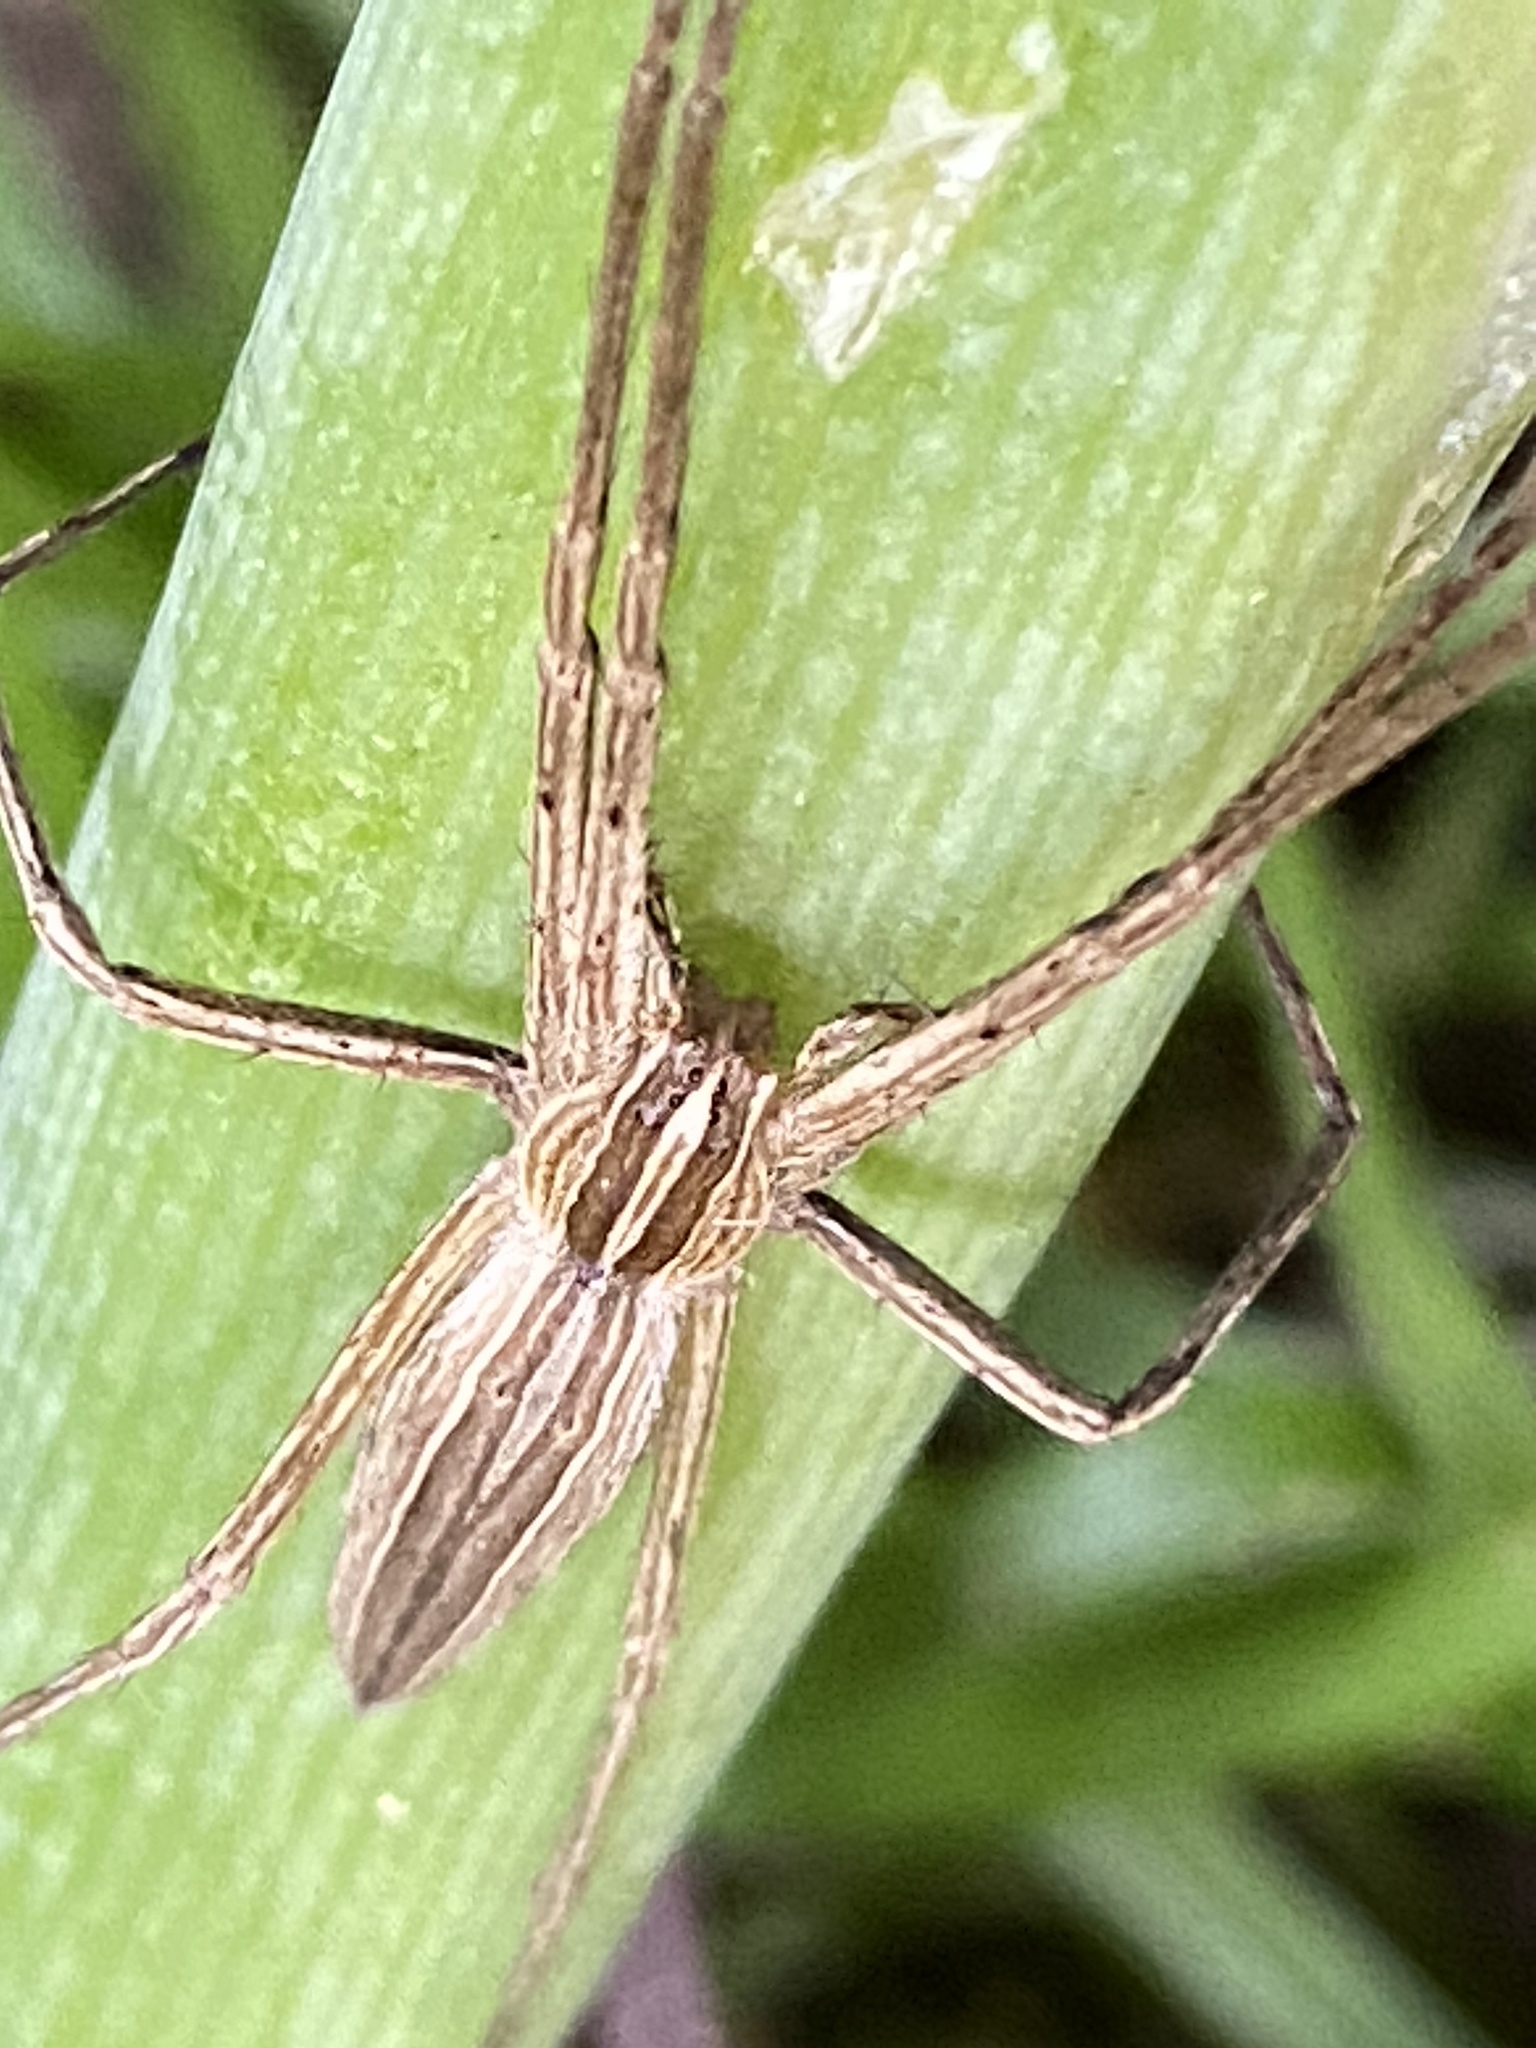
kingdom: Animalia
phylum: Arthropoda
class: Arachnida
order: Araneae
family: Pisauridae
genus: Pisaurina
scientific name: Pisaurina dubia
